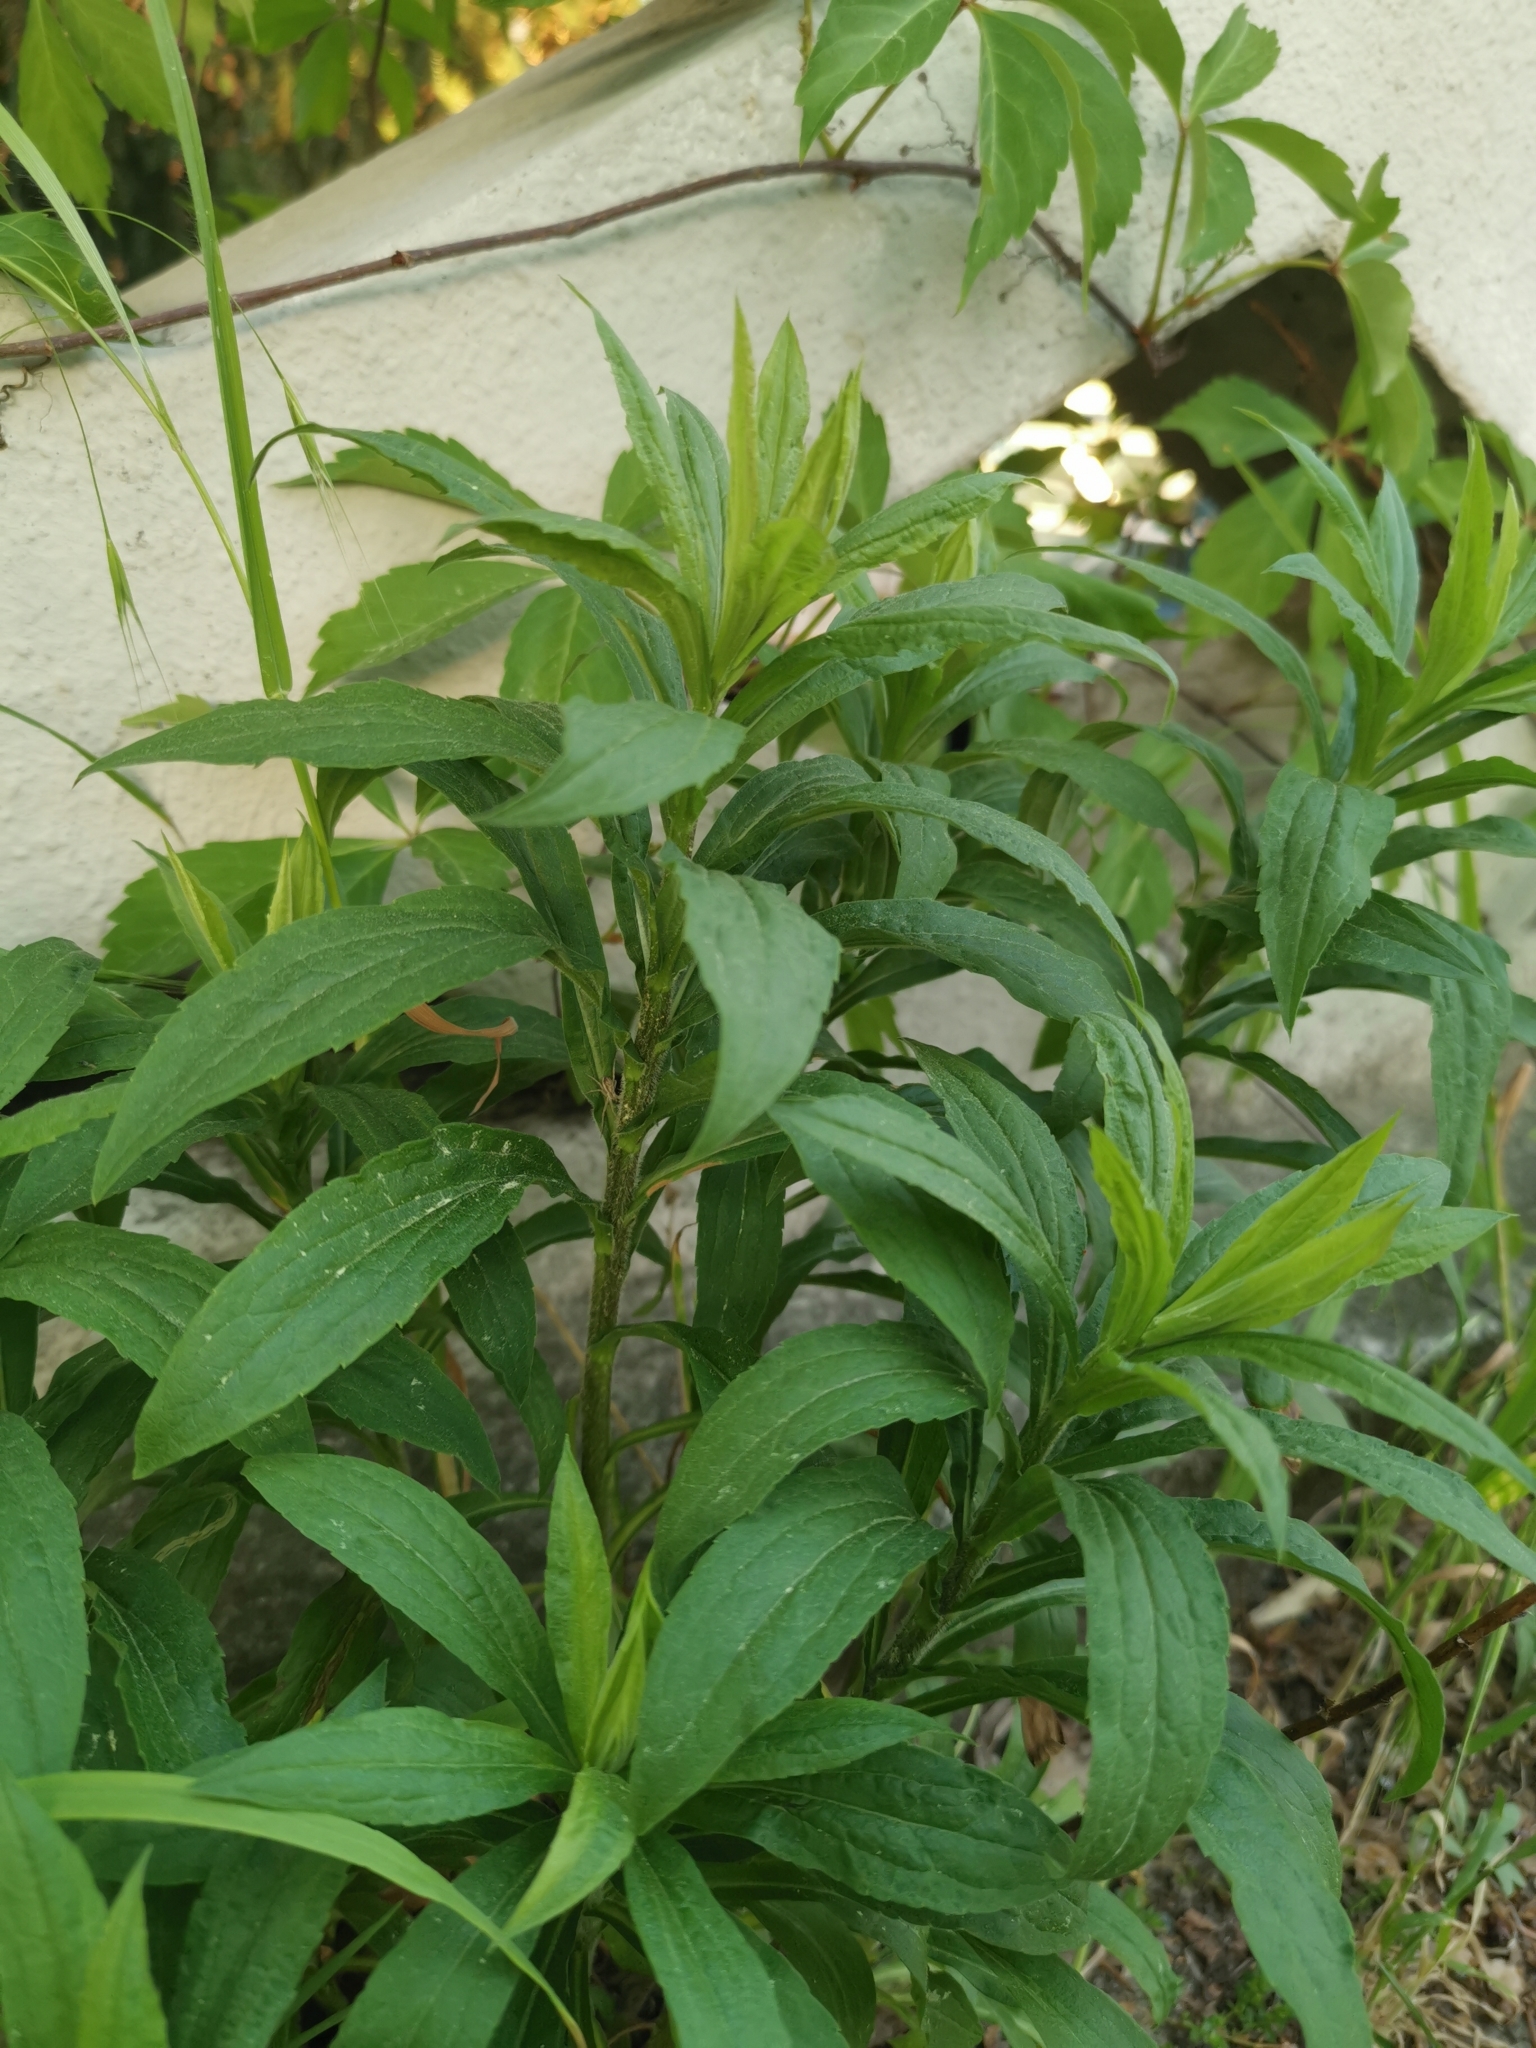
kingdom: Plantae
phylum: Tracheophyta
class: Magnoliopsida
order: Asterales
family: Asteraceae
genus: Solidago
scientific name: Solidago canadensis
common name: Canada goldenrod
